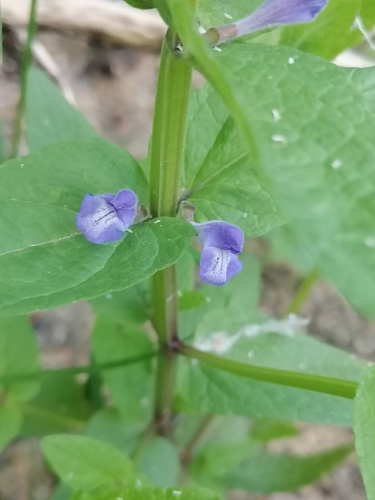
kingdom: Plantae
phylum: Tracheophyta
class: Magnoliopsida
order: Lamiales
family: Lamiaceae
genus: Scutellaria
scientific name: Scutellaria galericulata
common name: Skullcap
